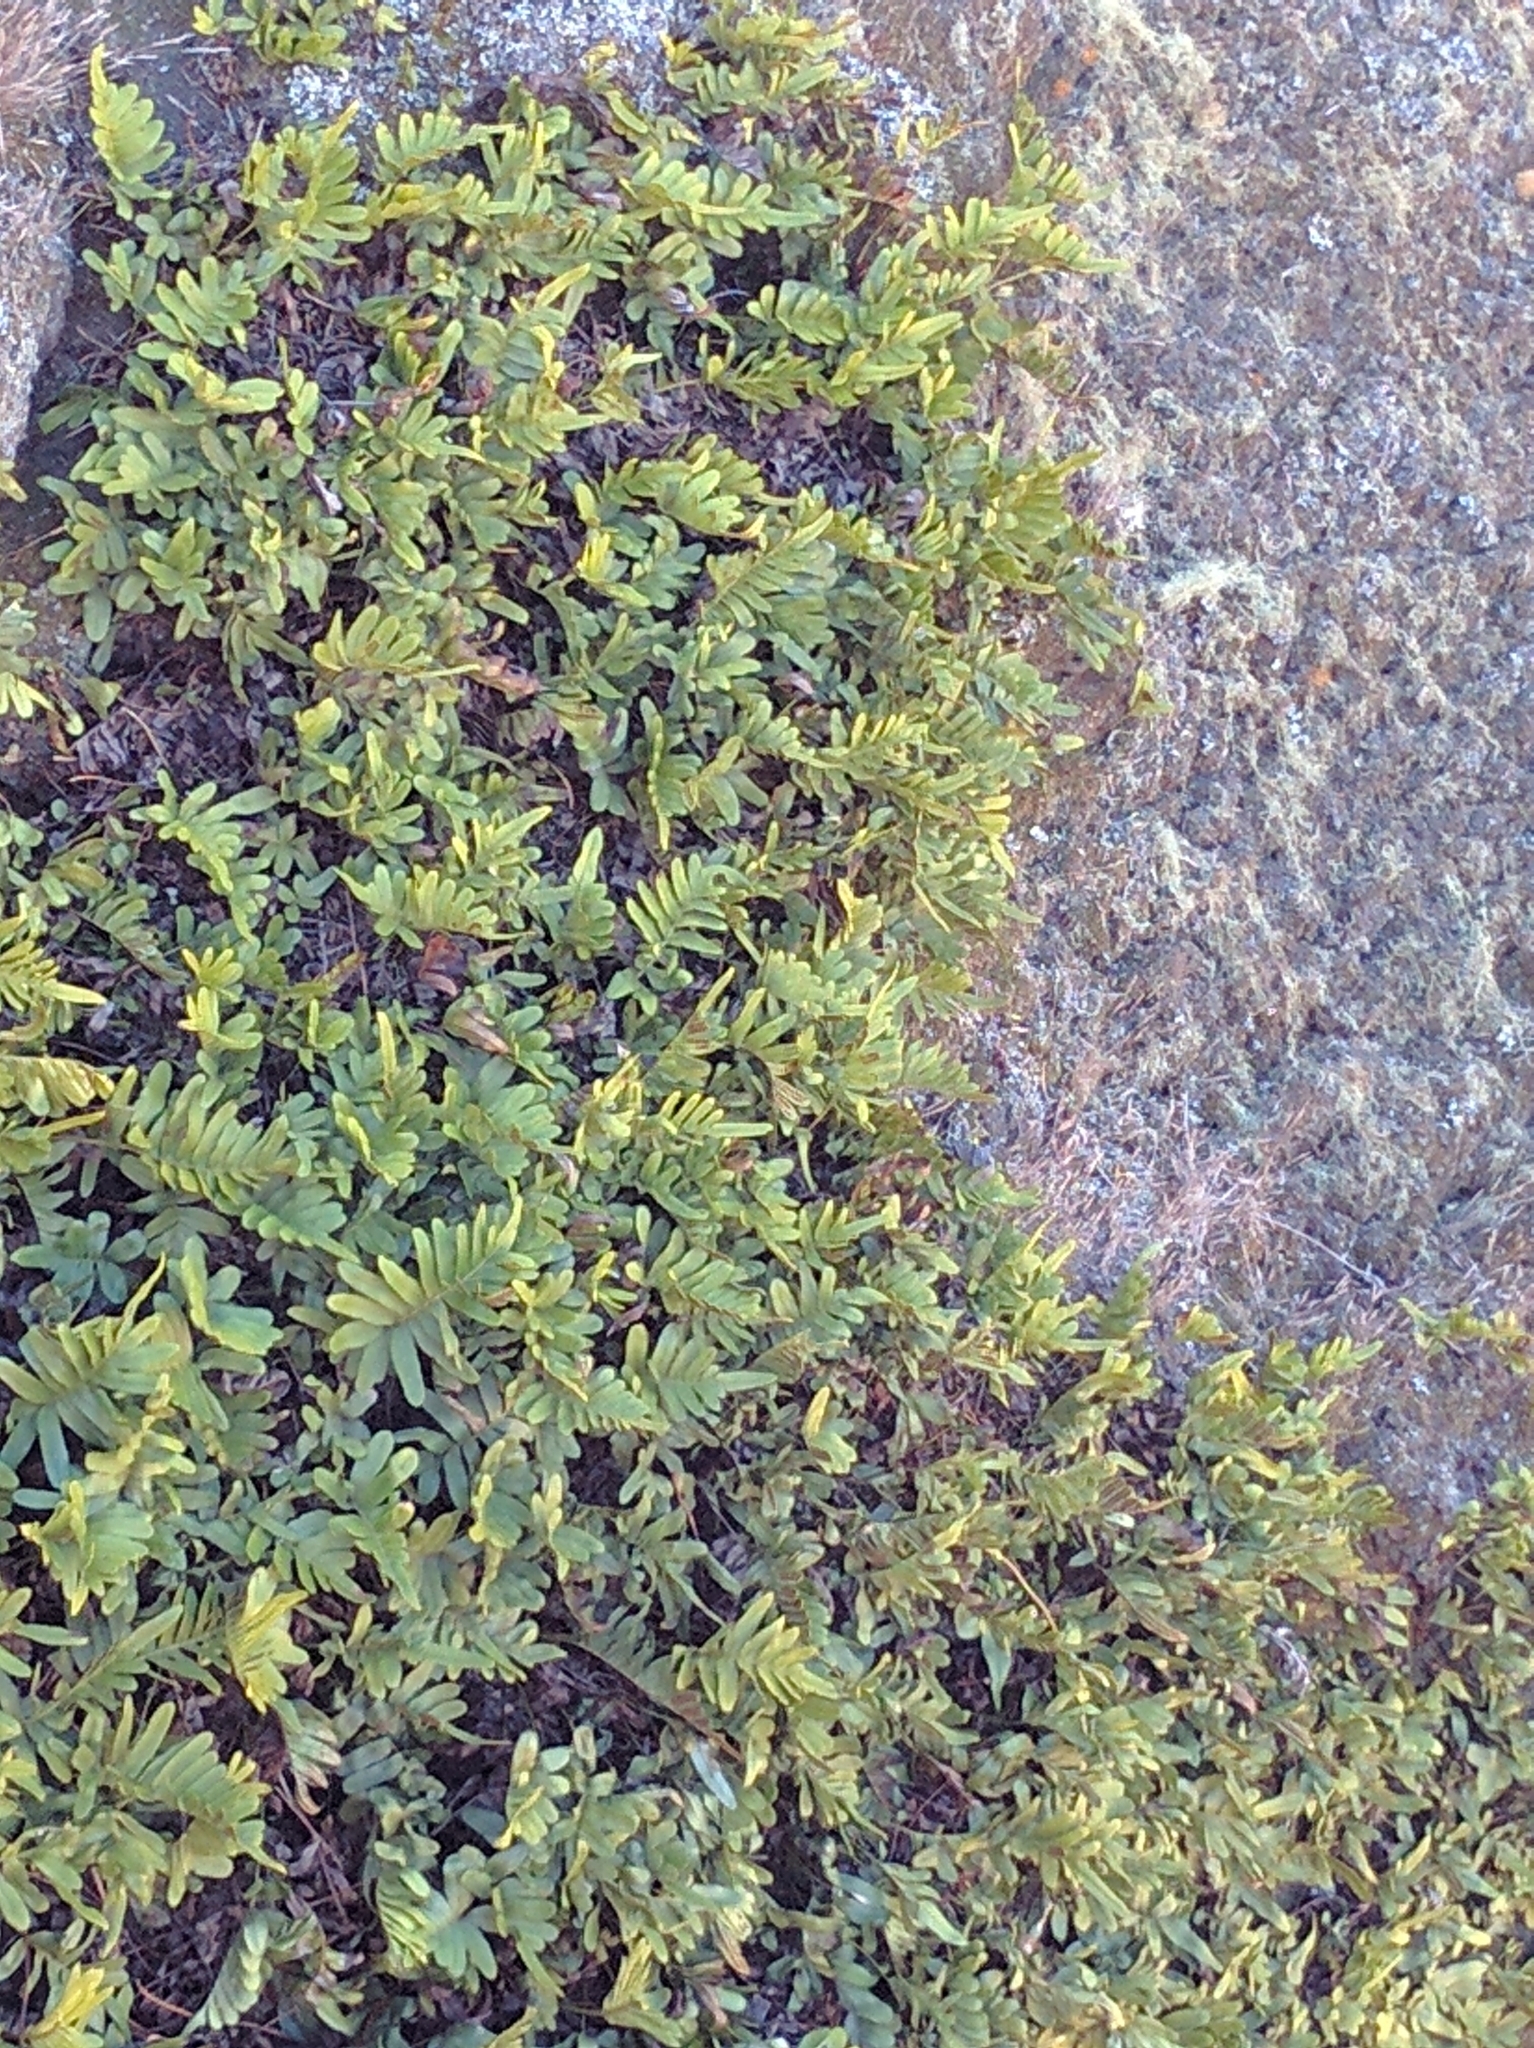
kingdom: Plantae
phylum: Tracheophyta
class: Polypodiopsida
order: Polypodiales
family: Polypodiaceae
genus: Polypodium
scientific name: Polypodium scouleri
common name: Scouler's polypody
